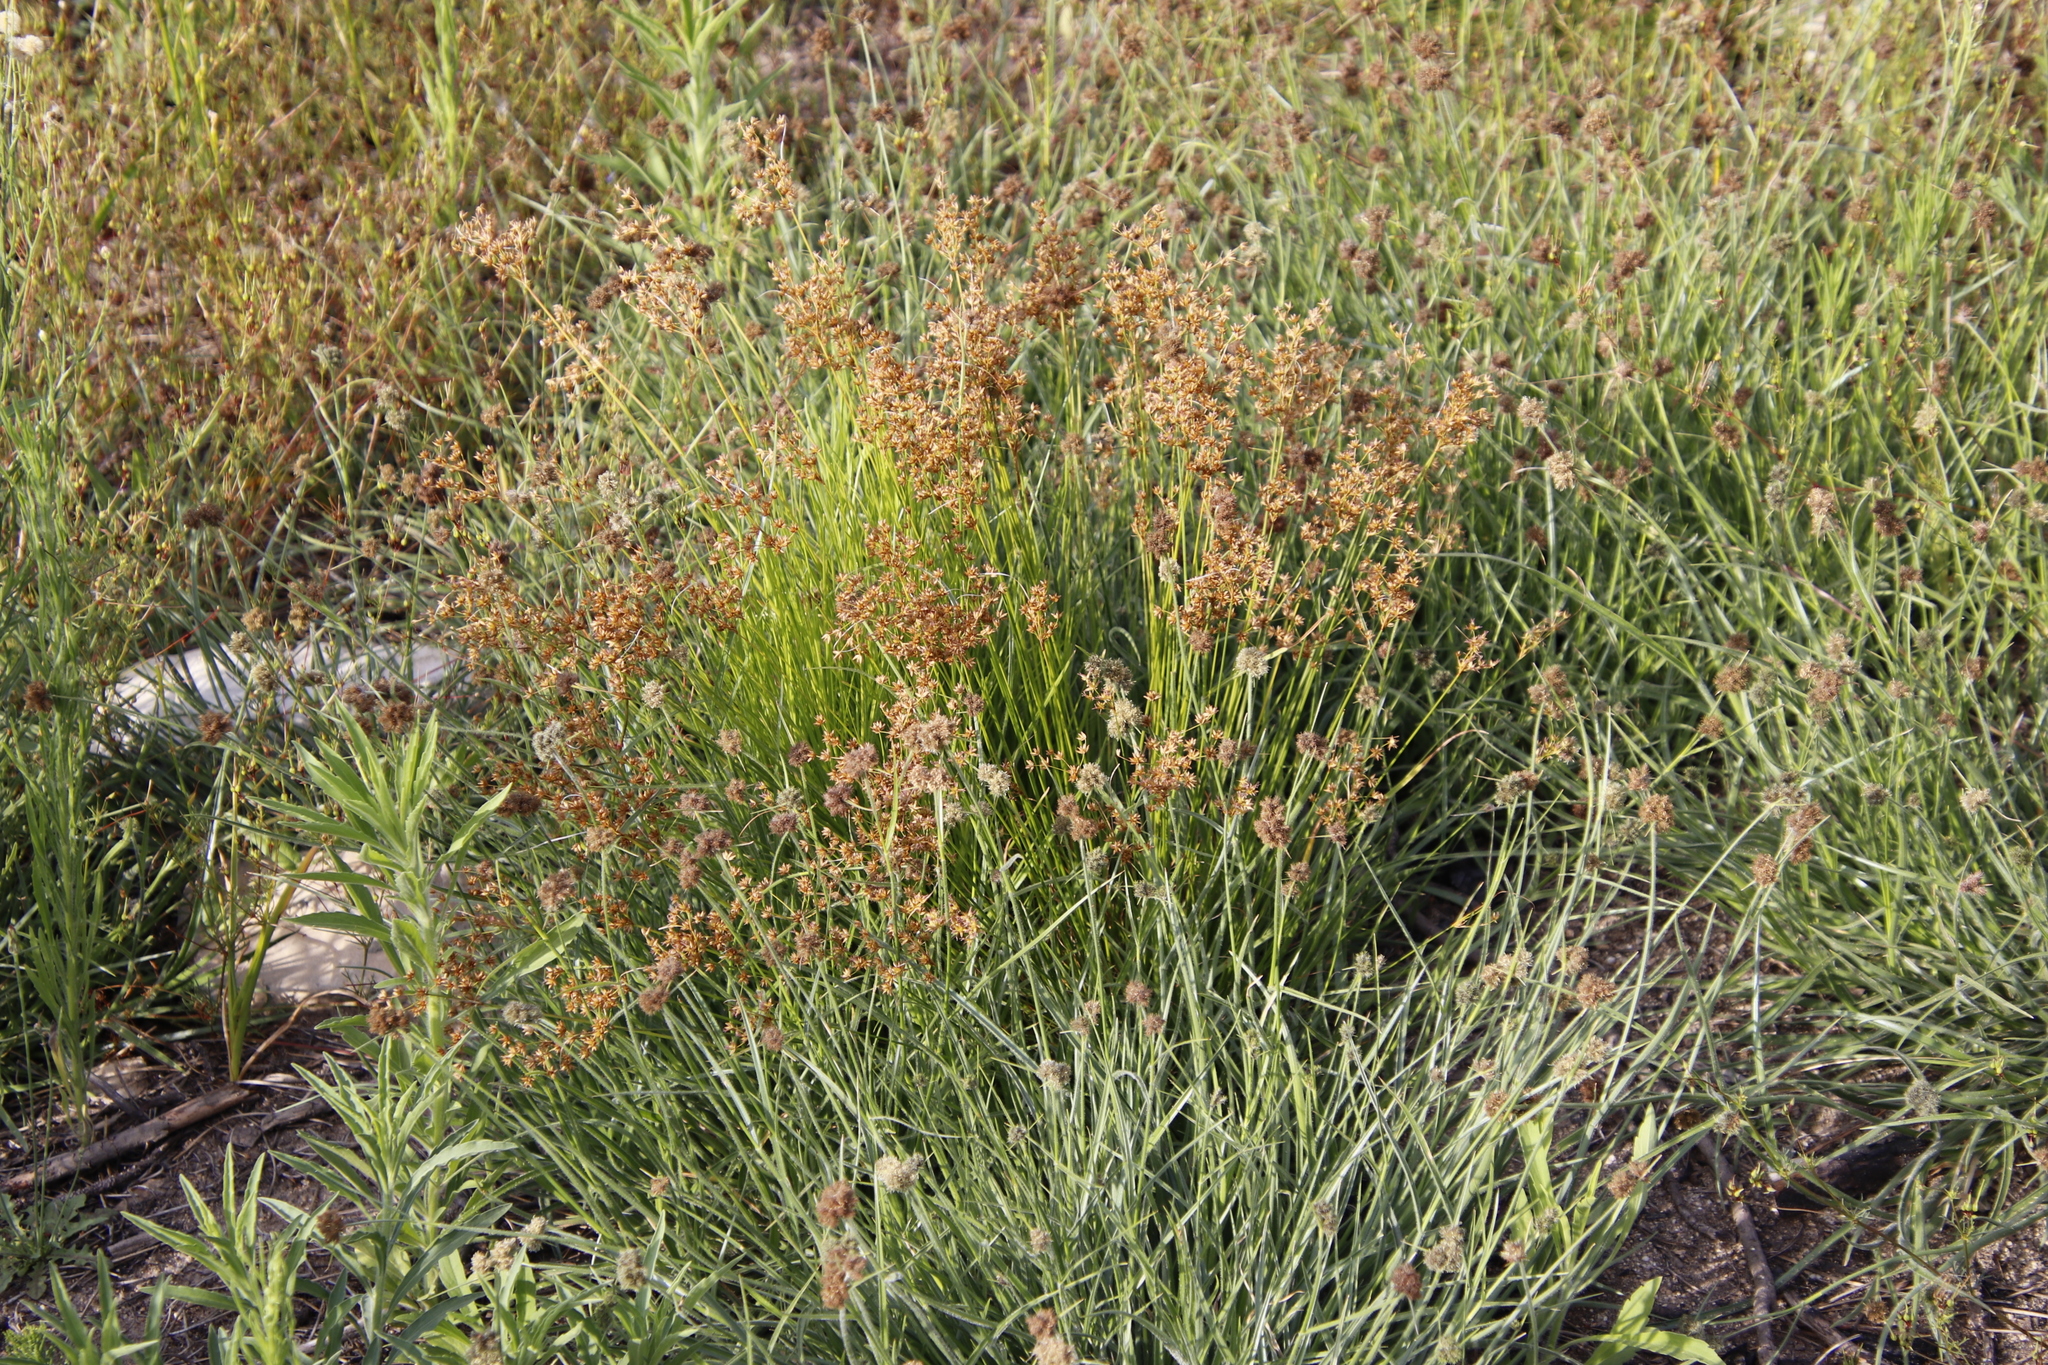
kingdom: Plantae
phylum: Tracheophyta
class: Liliopsida
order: Poales
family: Cyperaceae
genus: Fuirena
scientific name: Fuirena hirsuta
